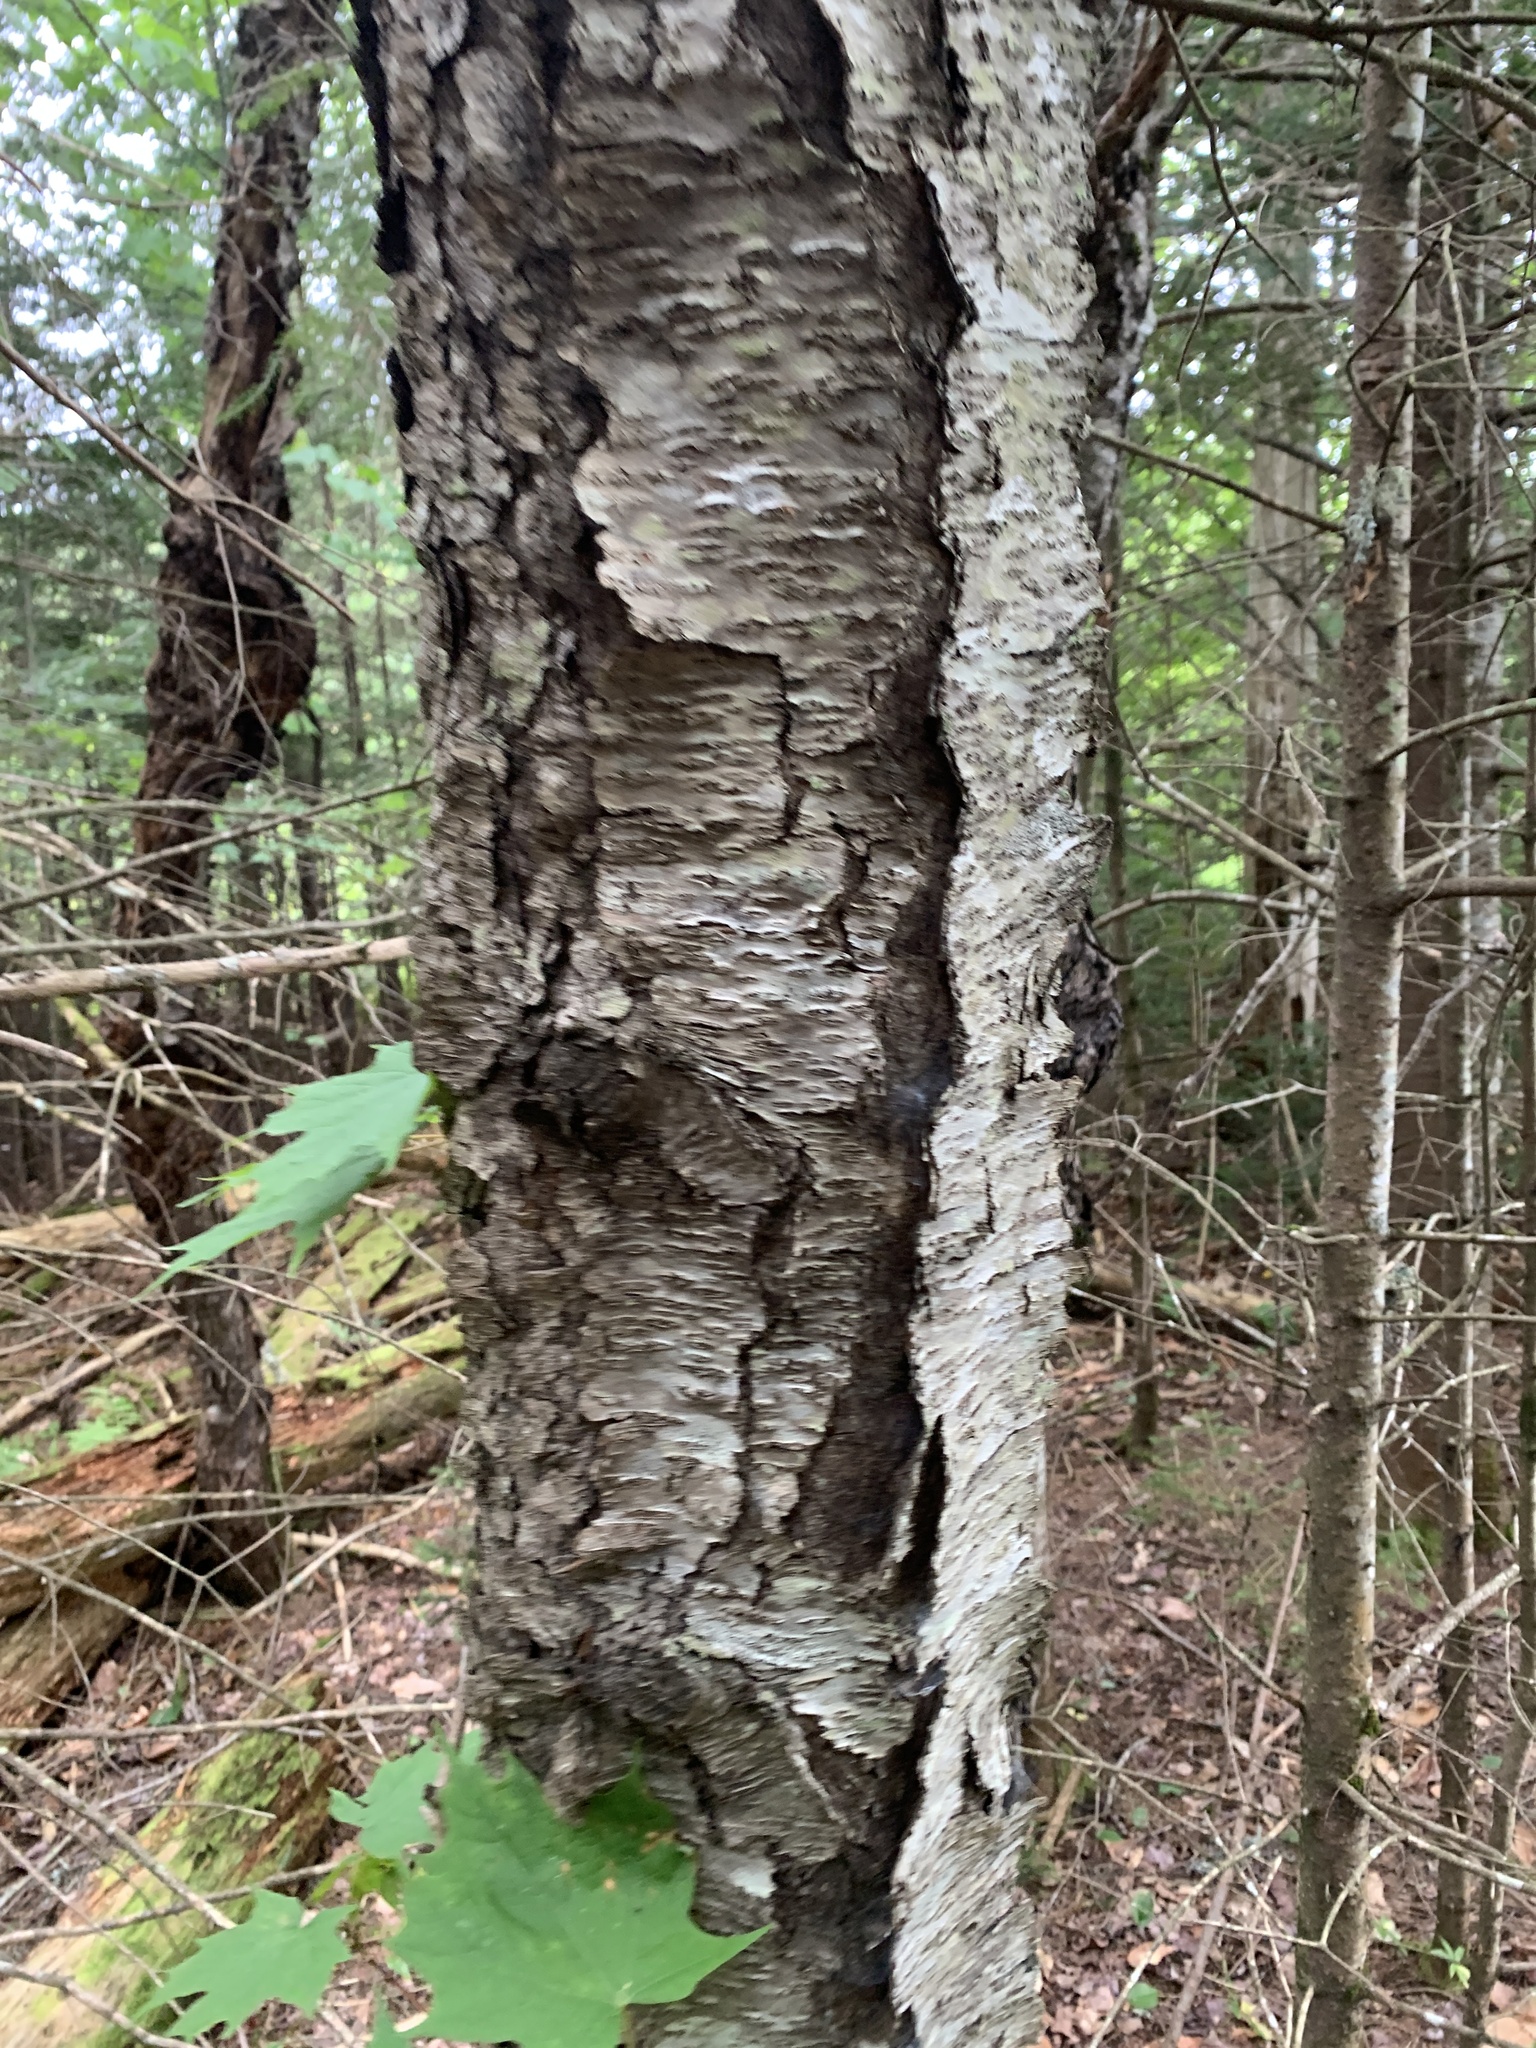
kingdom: Plantae
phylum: Tracheophyta
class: Magnoliopsida
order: Rosales
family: Rosaceae
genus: Prunus
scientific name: Prunus serotina
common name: Black cherry
